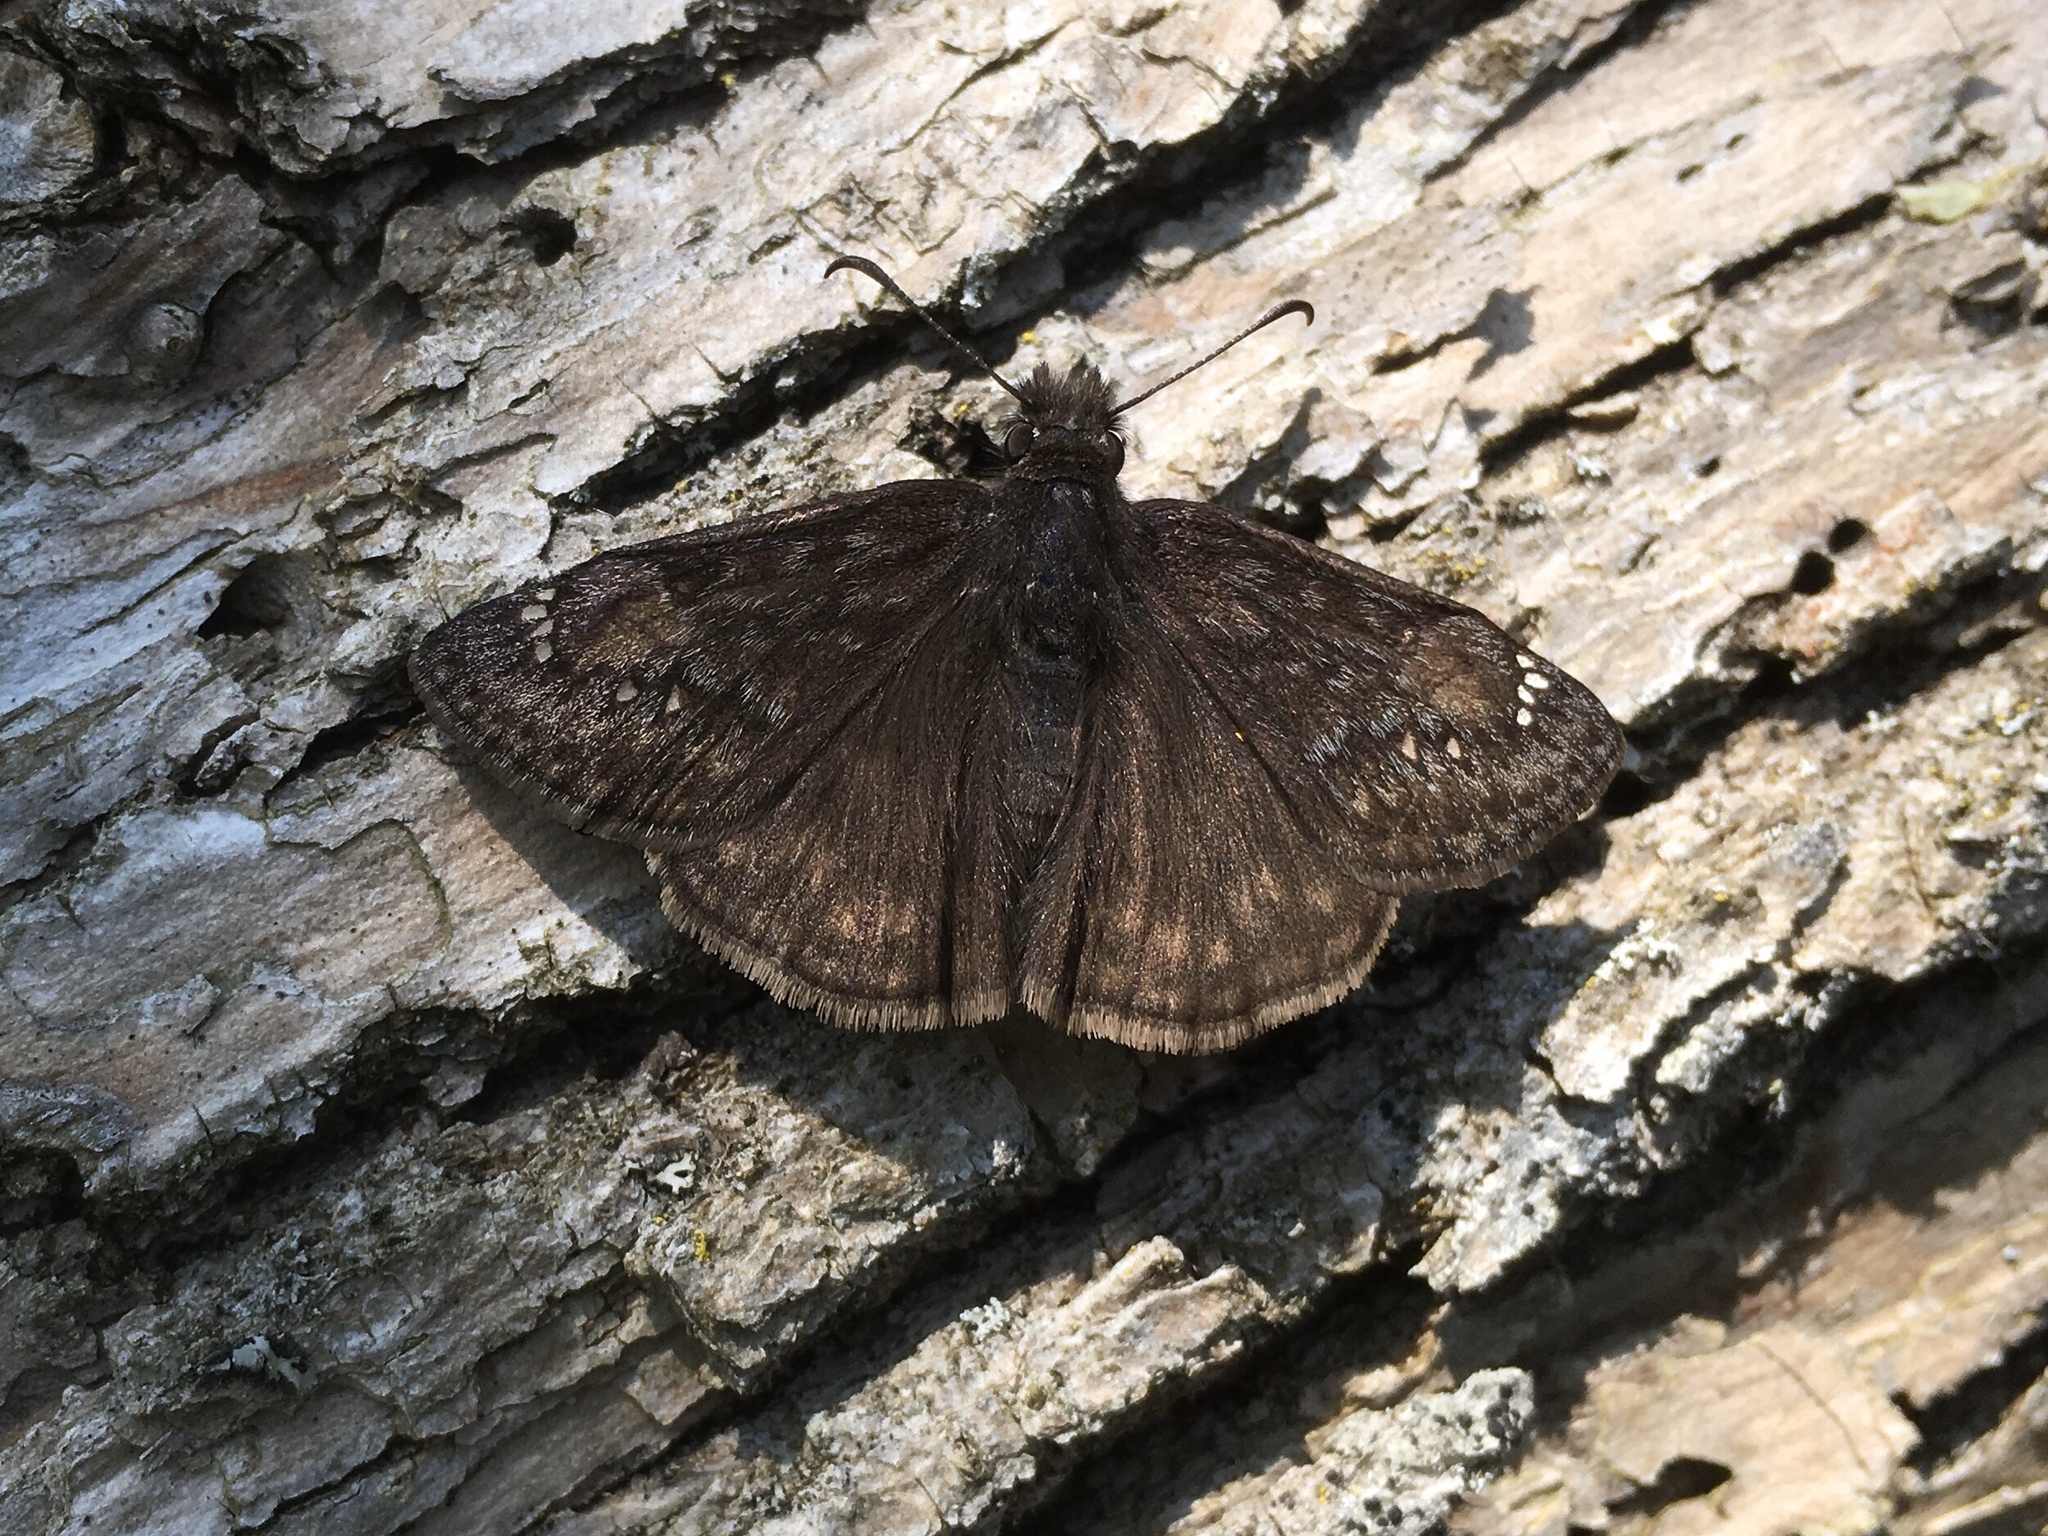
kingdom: Animalia
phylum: Arthropoda
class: Insecta
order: Lepidoptera
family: Hesperiidae
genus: Erynnis
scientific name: Erynnis juvenalis
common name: Juvenal's duskywing
